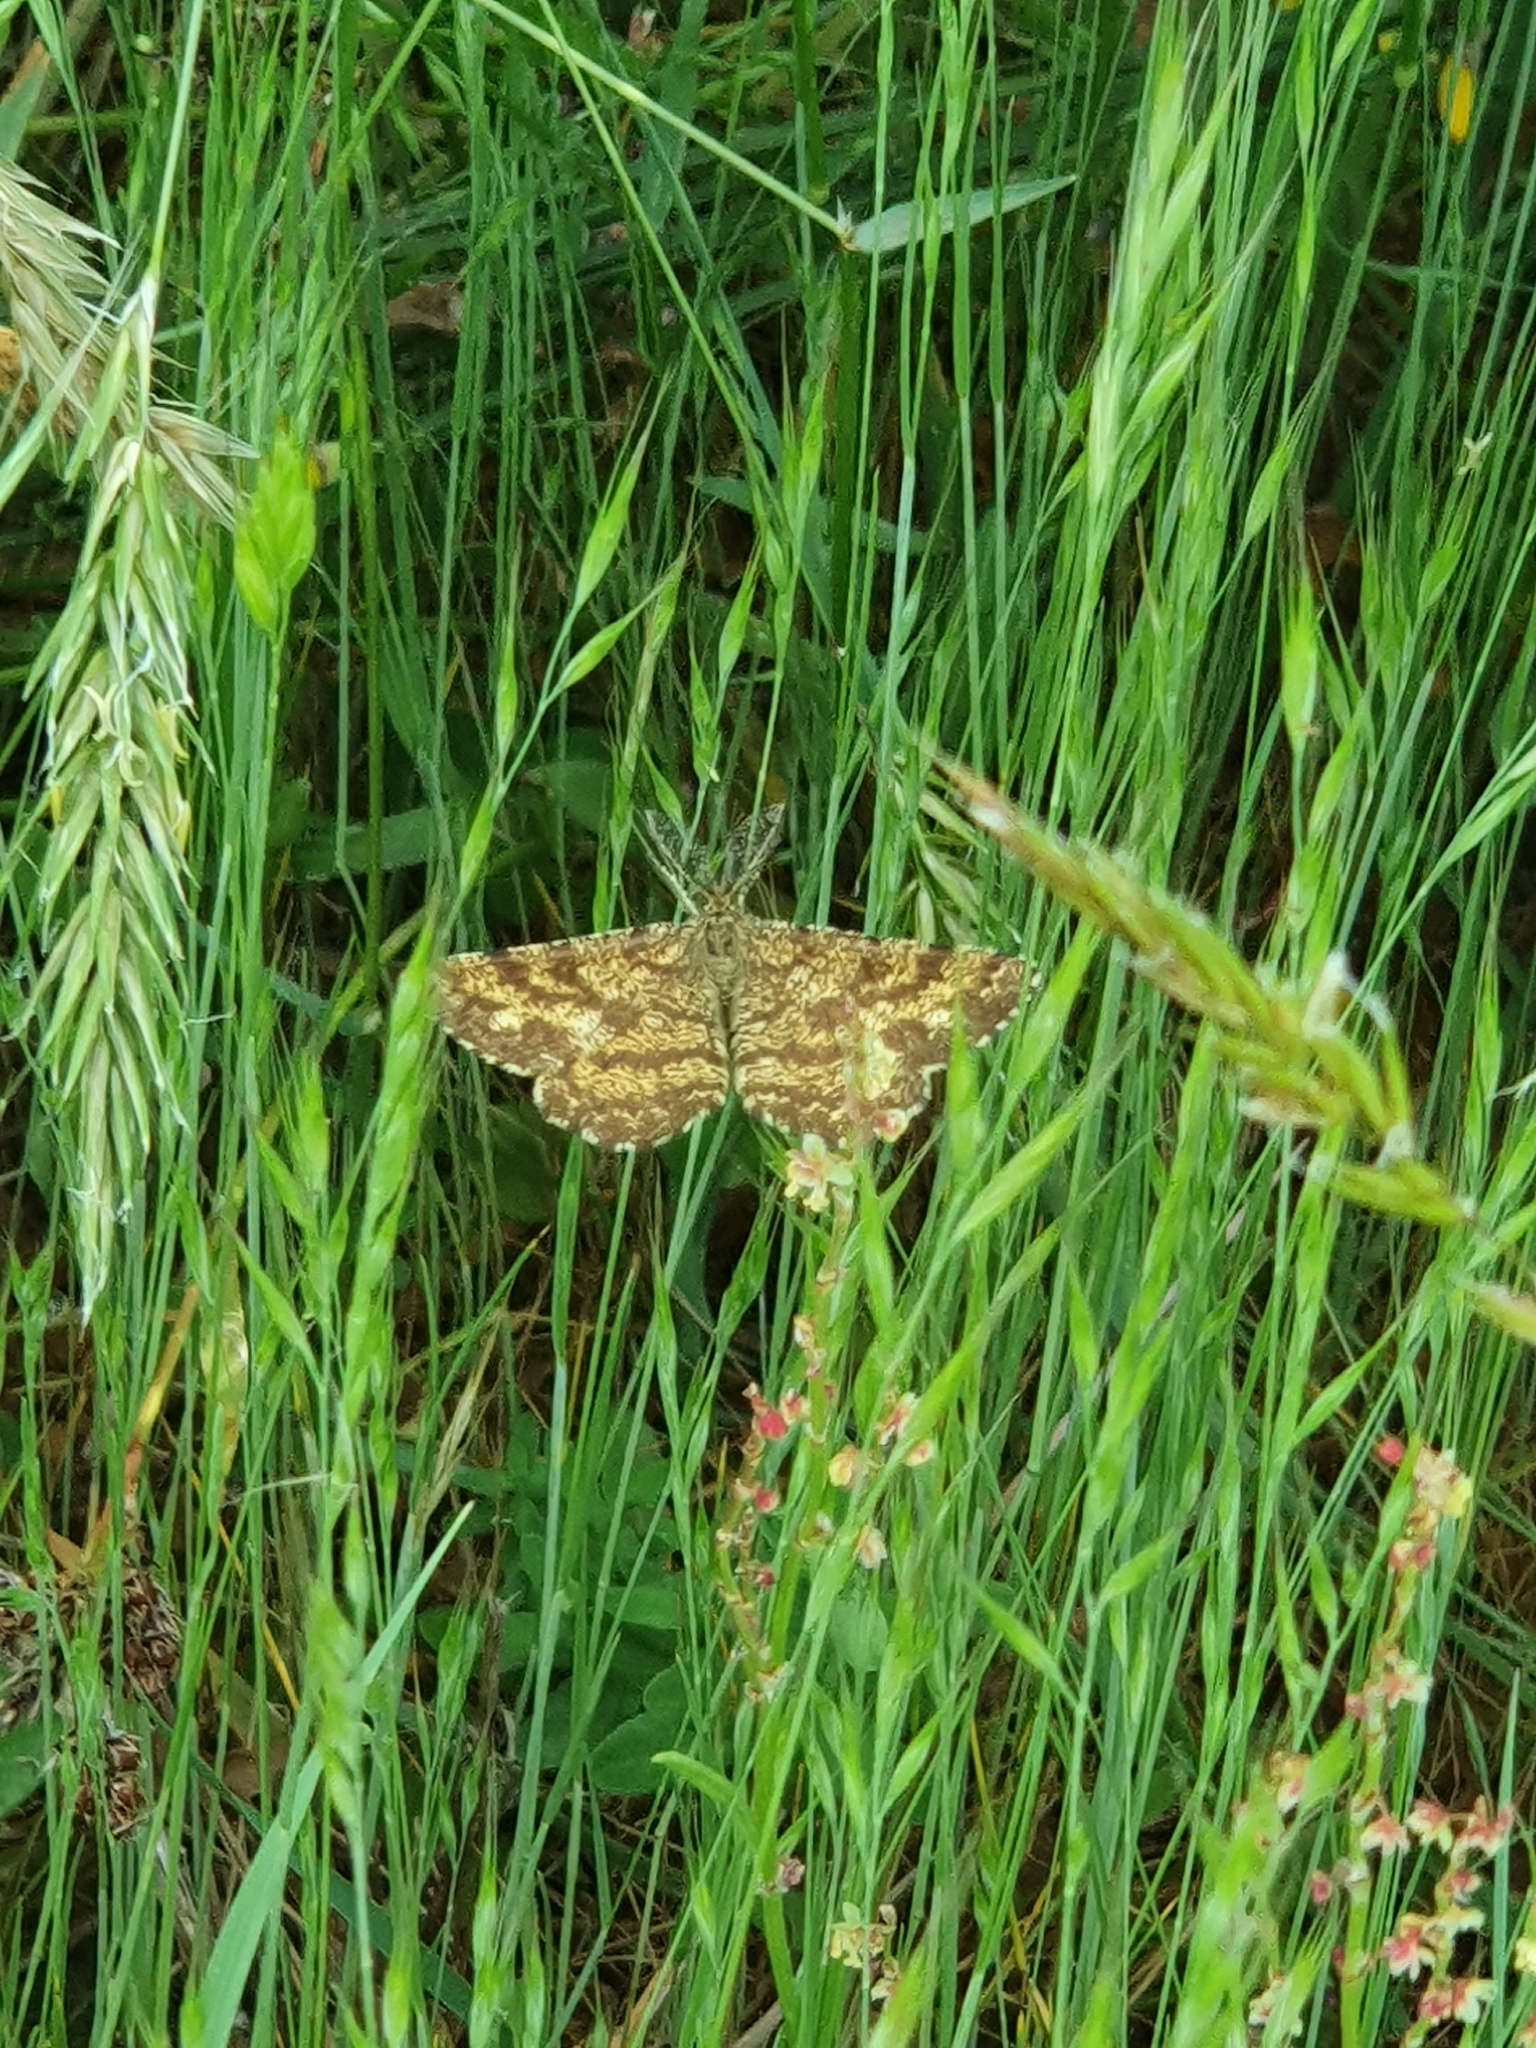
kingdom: Animalia
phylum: Arthropoda
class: Insecta
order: Lepidoptera
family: Geometridae
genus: Ematurga
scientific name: Ematurga atomaria
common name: Common heath
